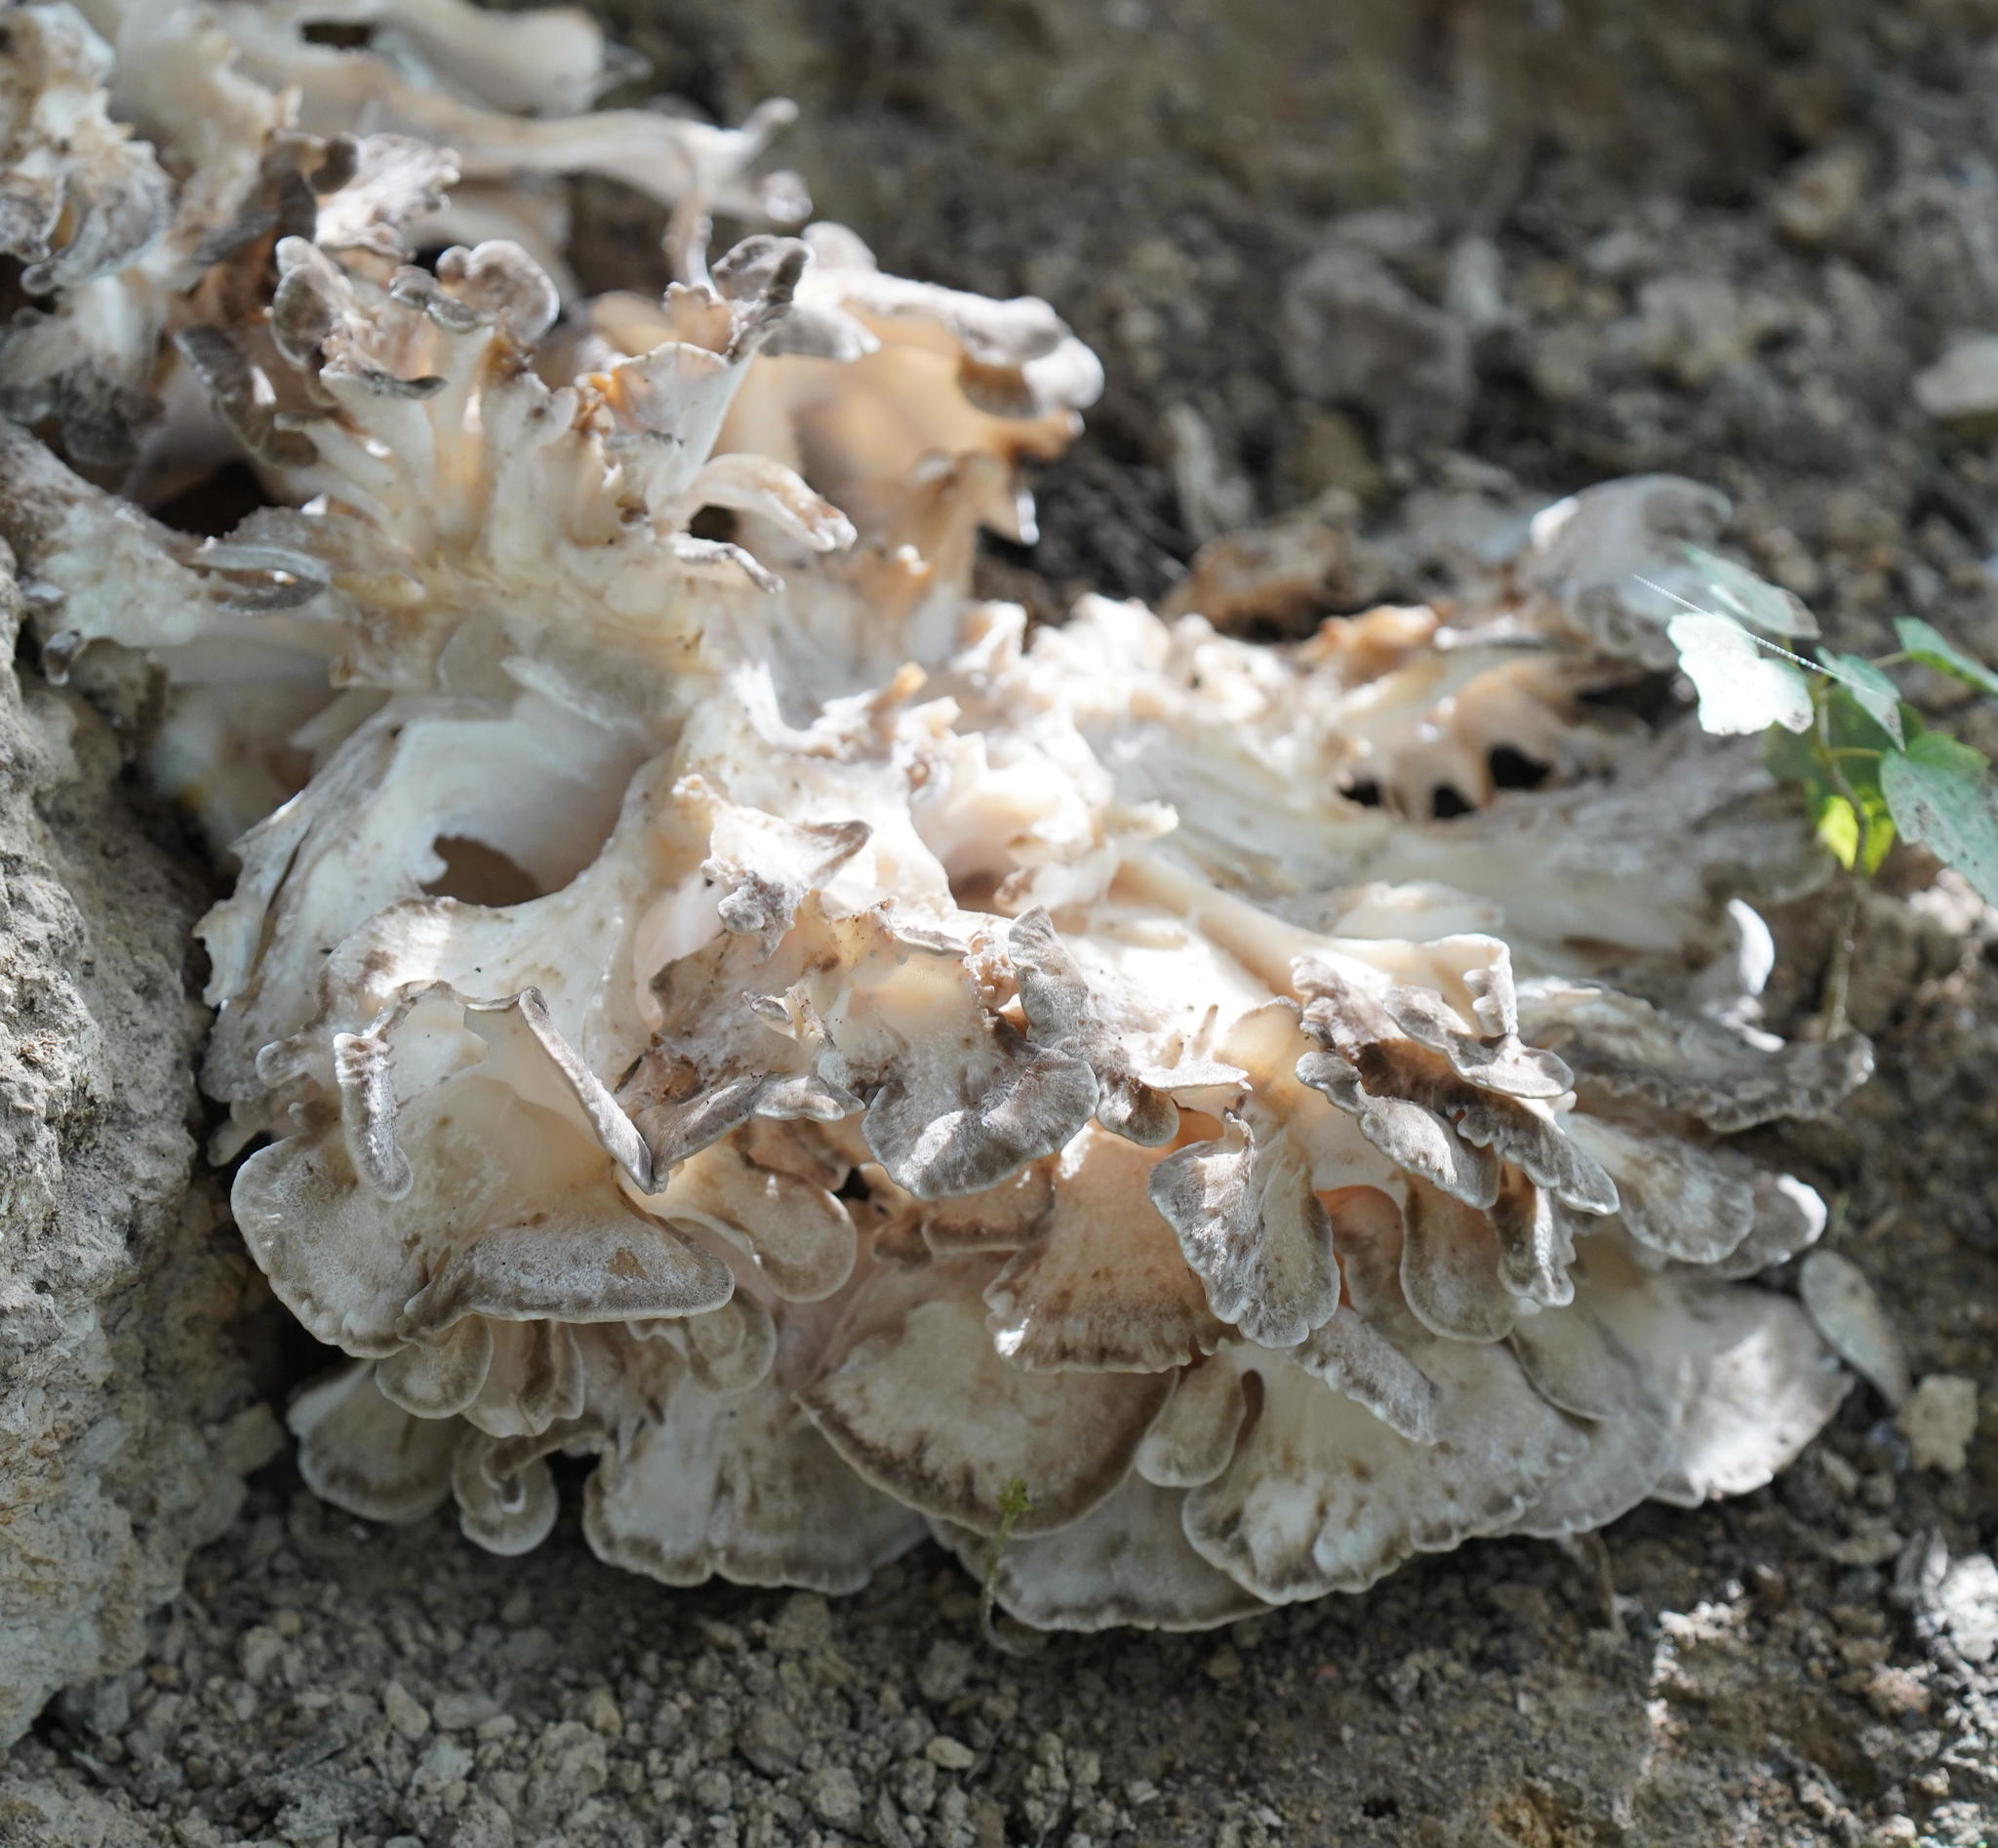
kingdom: Fungi
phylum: Basidiomycota
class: Agaricomycetes
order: Polyporales
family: Grifolaceae
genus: Grifola
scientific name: Grifola frondosa
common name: Hen of the woods
